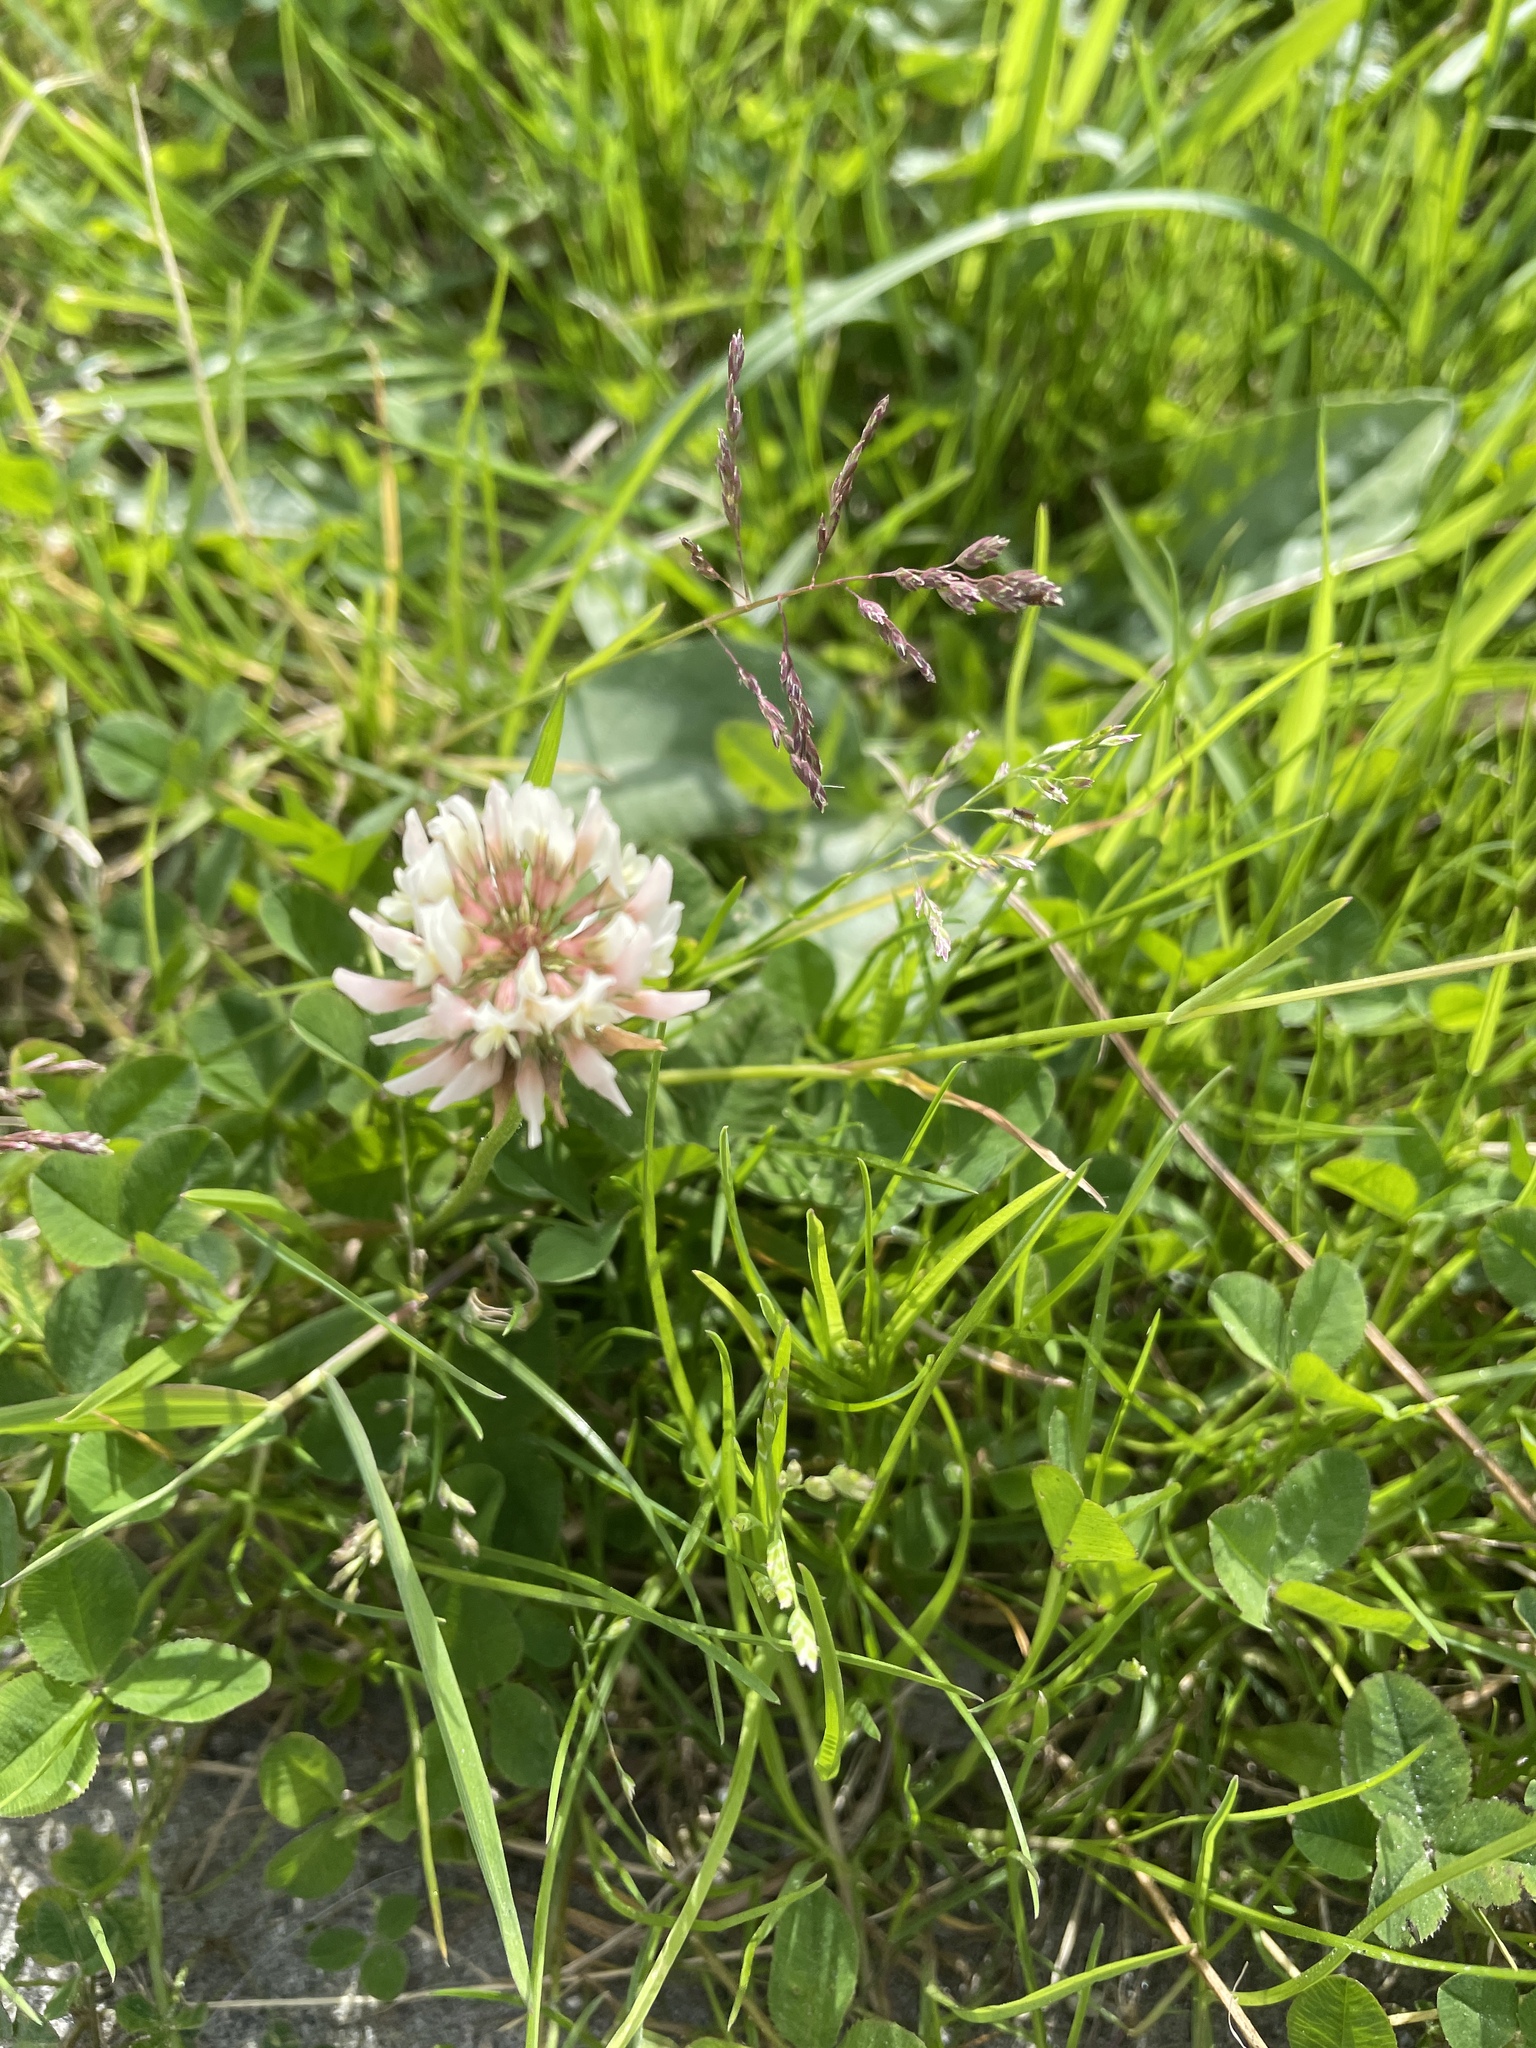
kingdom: Plantae
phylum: Tracheophyta
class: Magnoliopsida
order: Fabales
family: Fabaceae
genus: Trifolium
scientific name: Trifolium repens
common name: White clover
